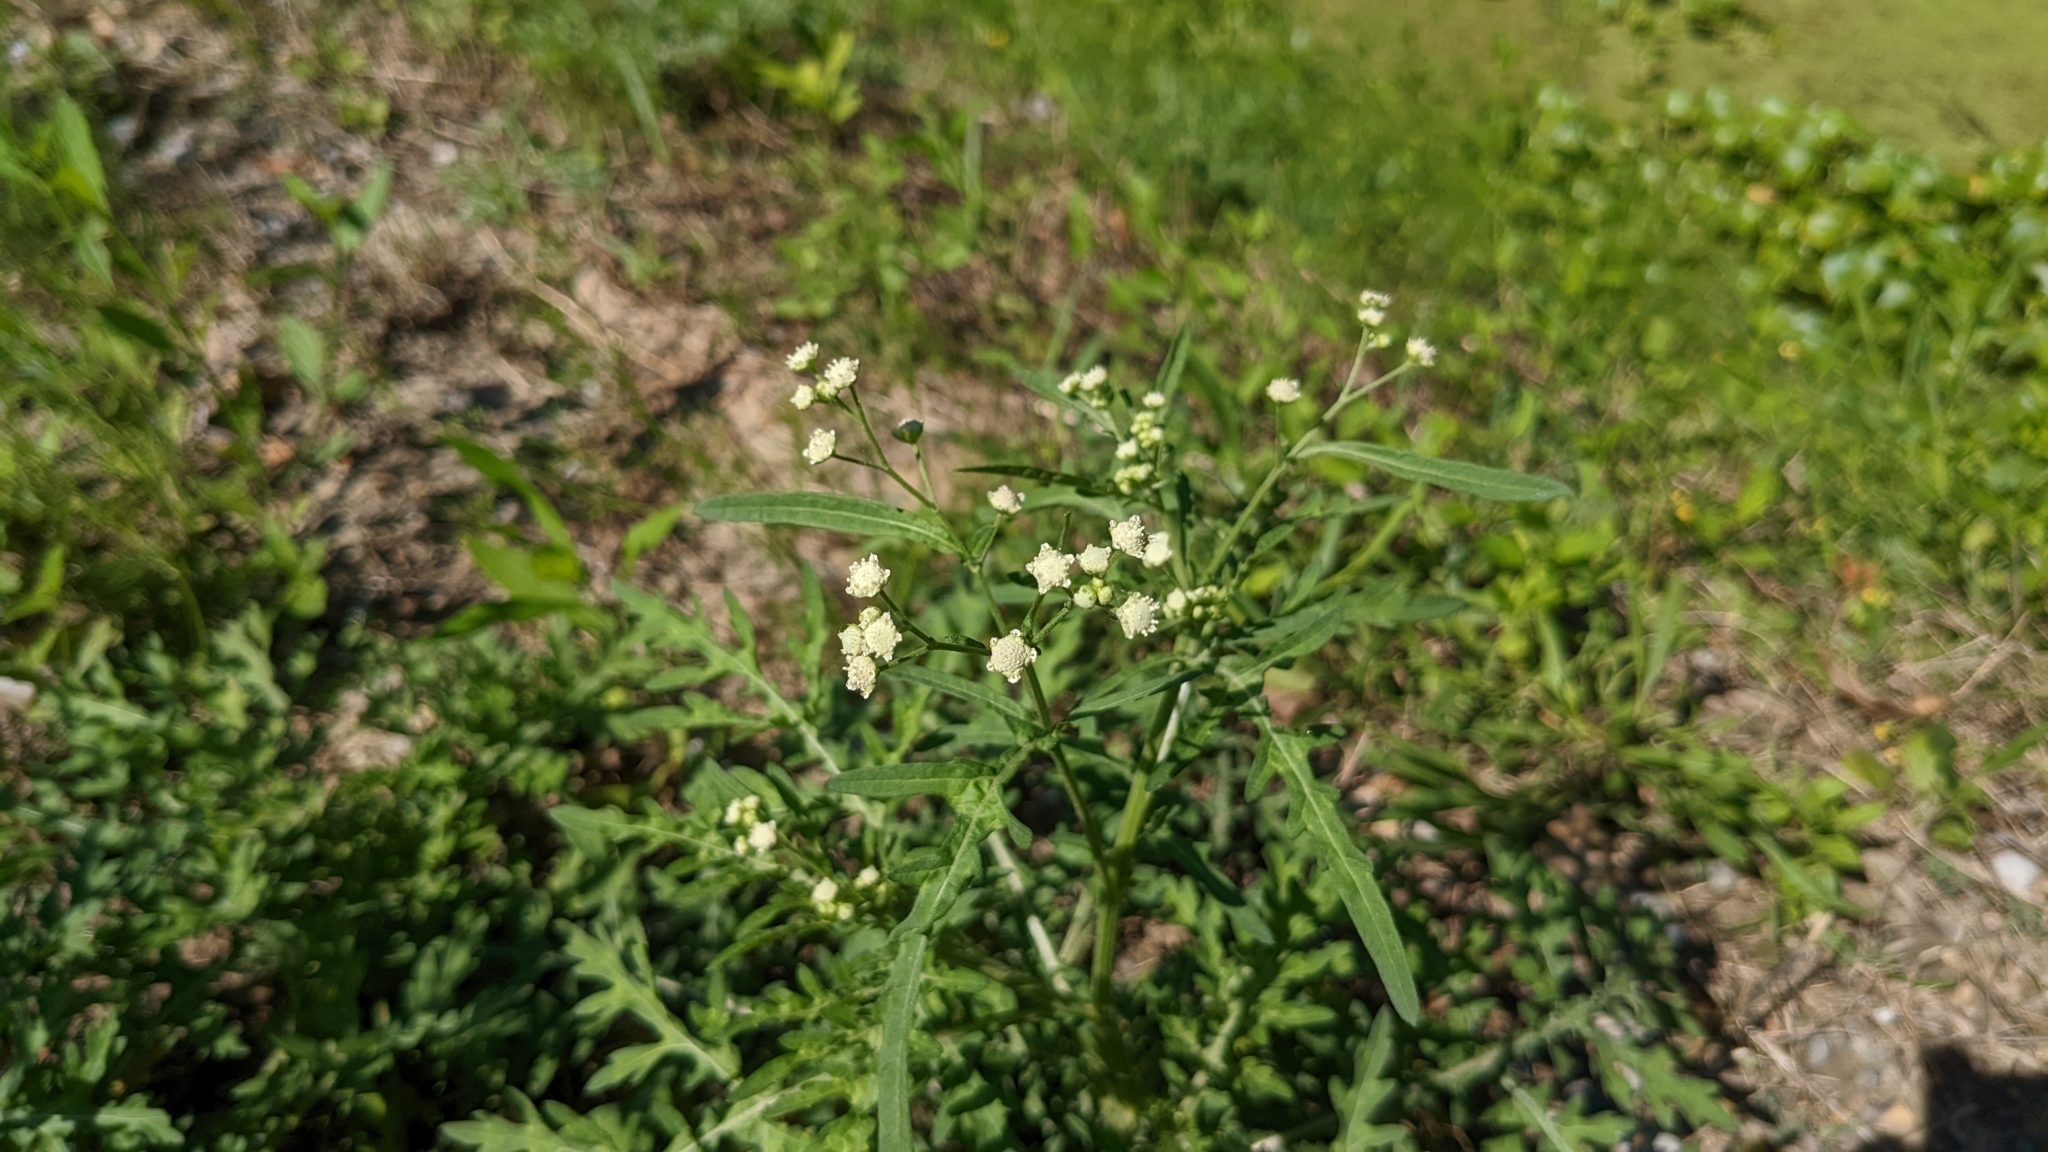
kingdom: Plantae
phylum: Tracheophyta
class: Magnoliopsida
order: Asterales
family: Asteraceae
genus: Parthenium
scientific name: Parthenium hysterophorus
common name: Santa maria feverfew
